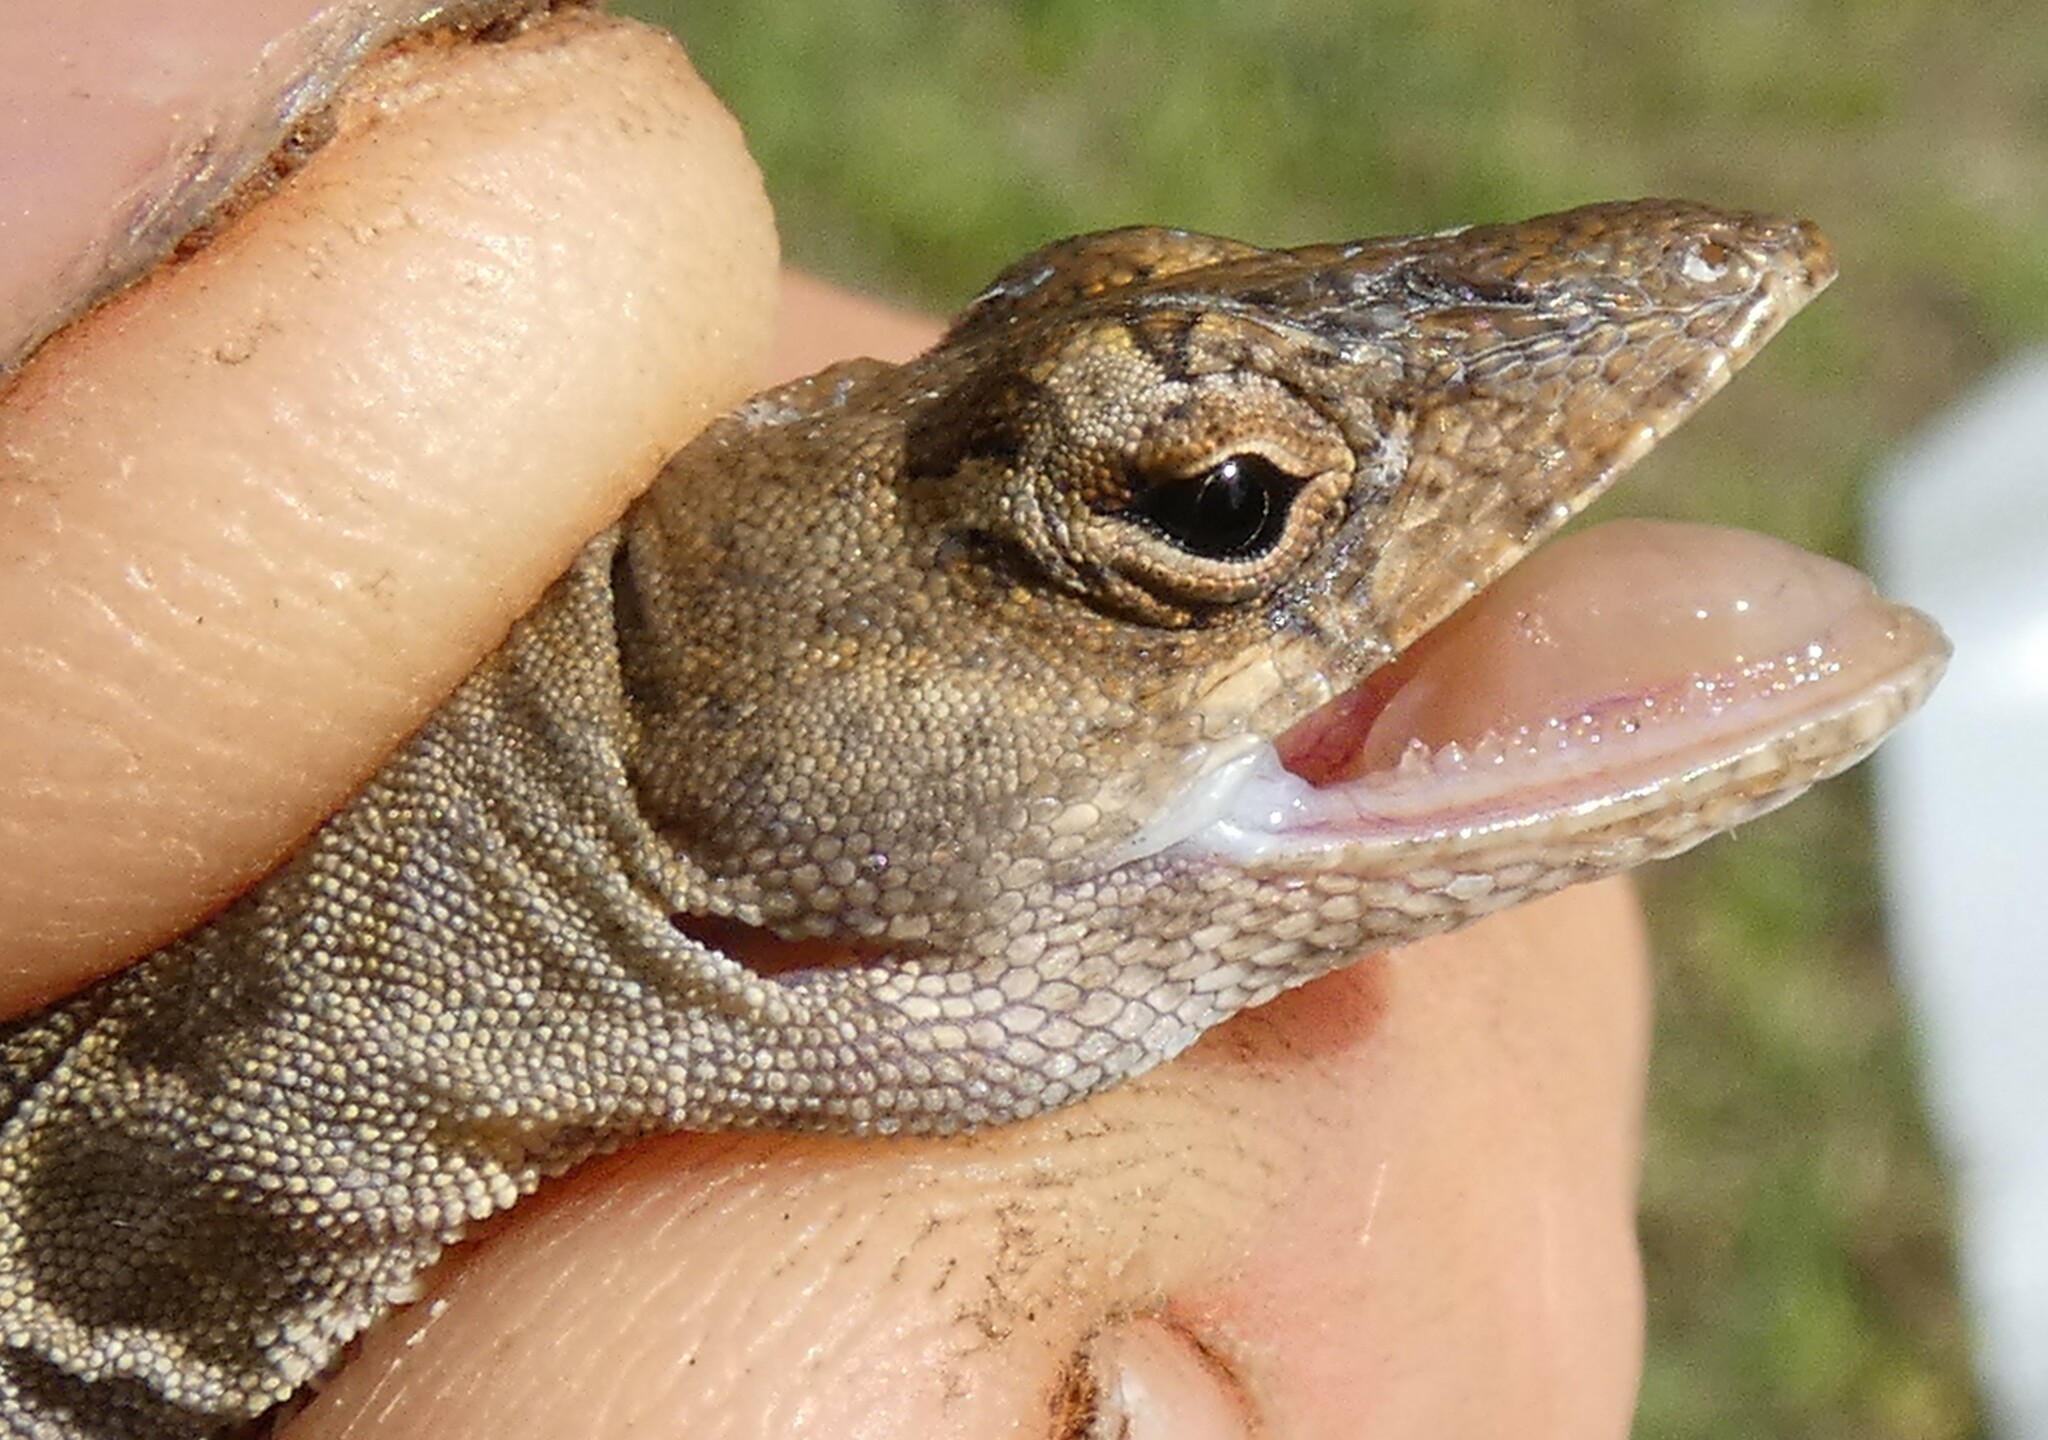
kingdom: Animalia
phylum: Chordata
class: Squamata
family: Dactyloidae
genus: Anolis
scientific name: Anolis sagrei
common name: Brown anole
